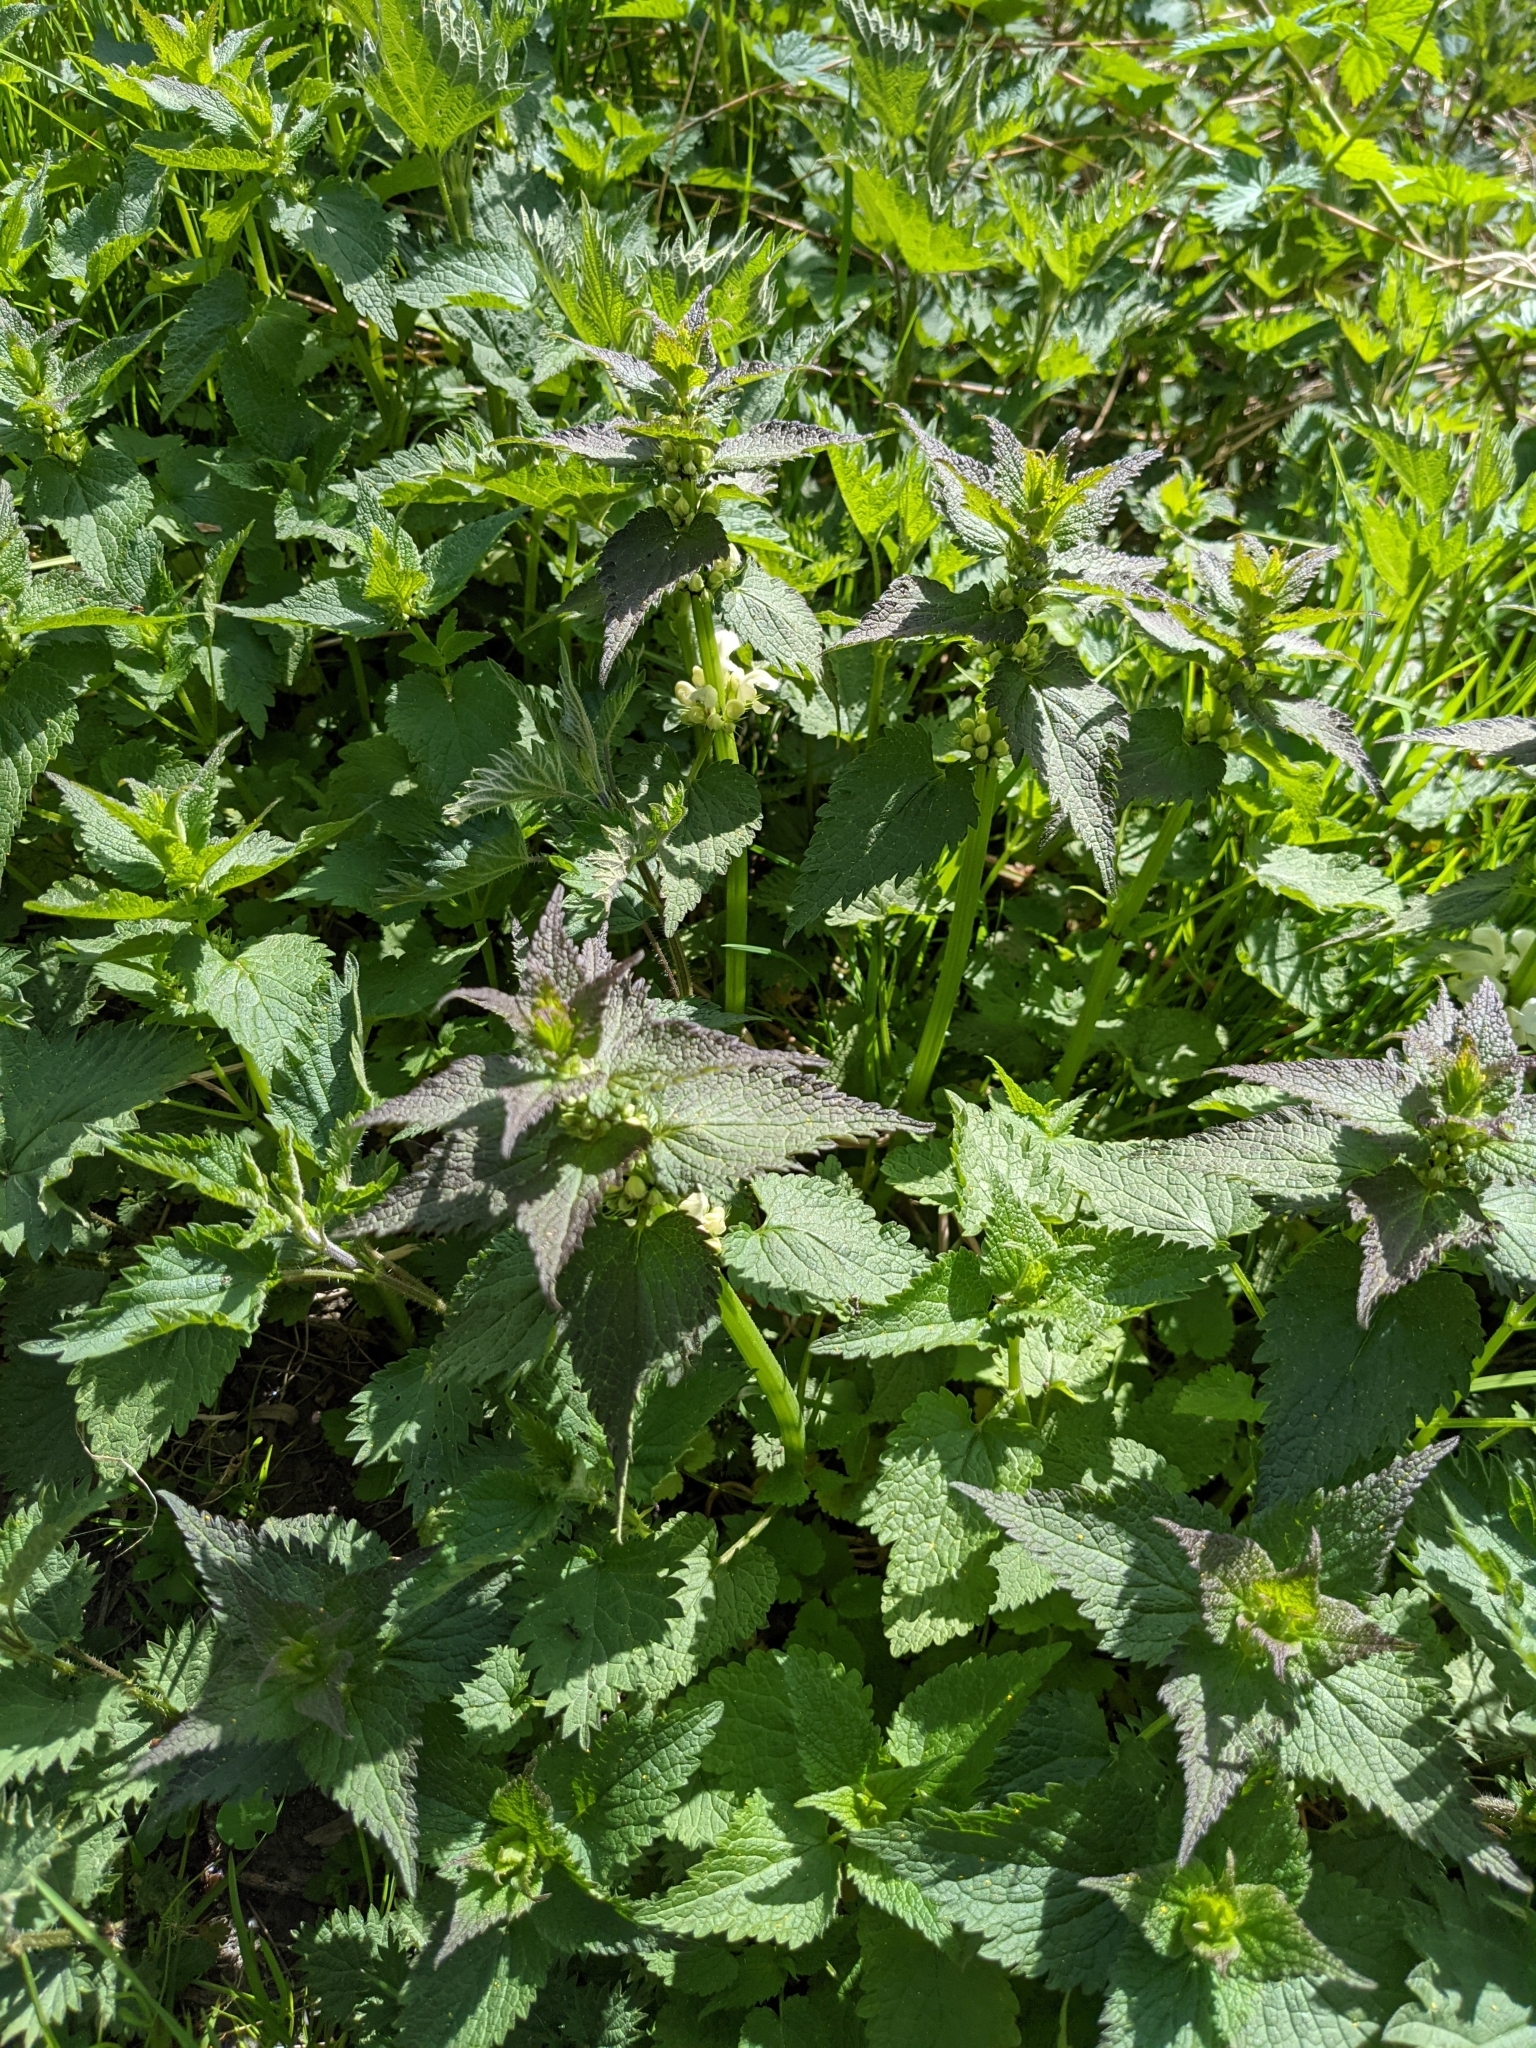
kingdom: Plantae
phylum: Tracheophyta
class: Magnoliopsida
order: Lamiales
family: Lamiaceae
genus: Lamium
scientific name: Lamium album
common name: White dead-nettle
